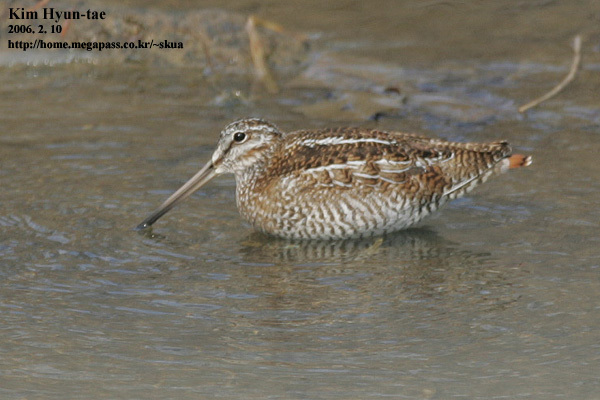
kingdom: Animalia
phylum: Chordata
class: Aves
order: Charadriiformes
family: Scolopacidae
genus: Gallinago
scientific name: Gallinago solitaria
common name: Solitary snipe
